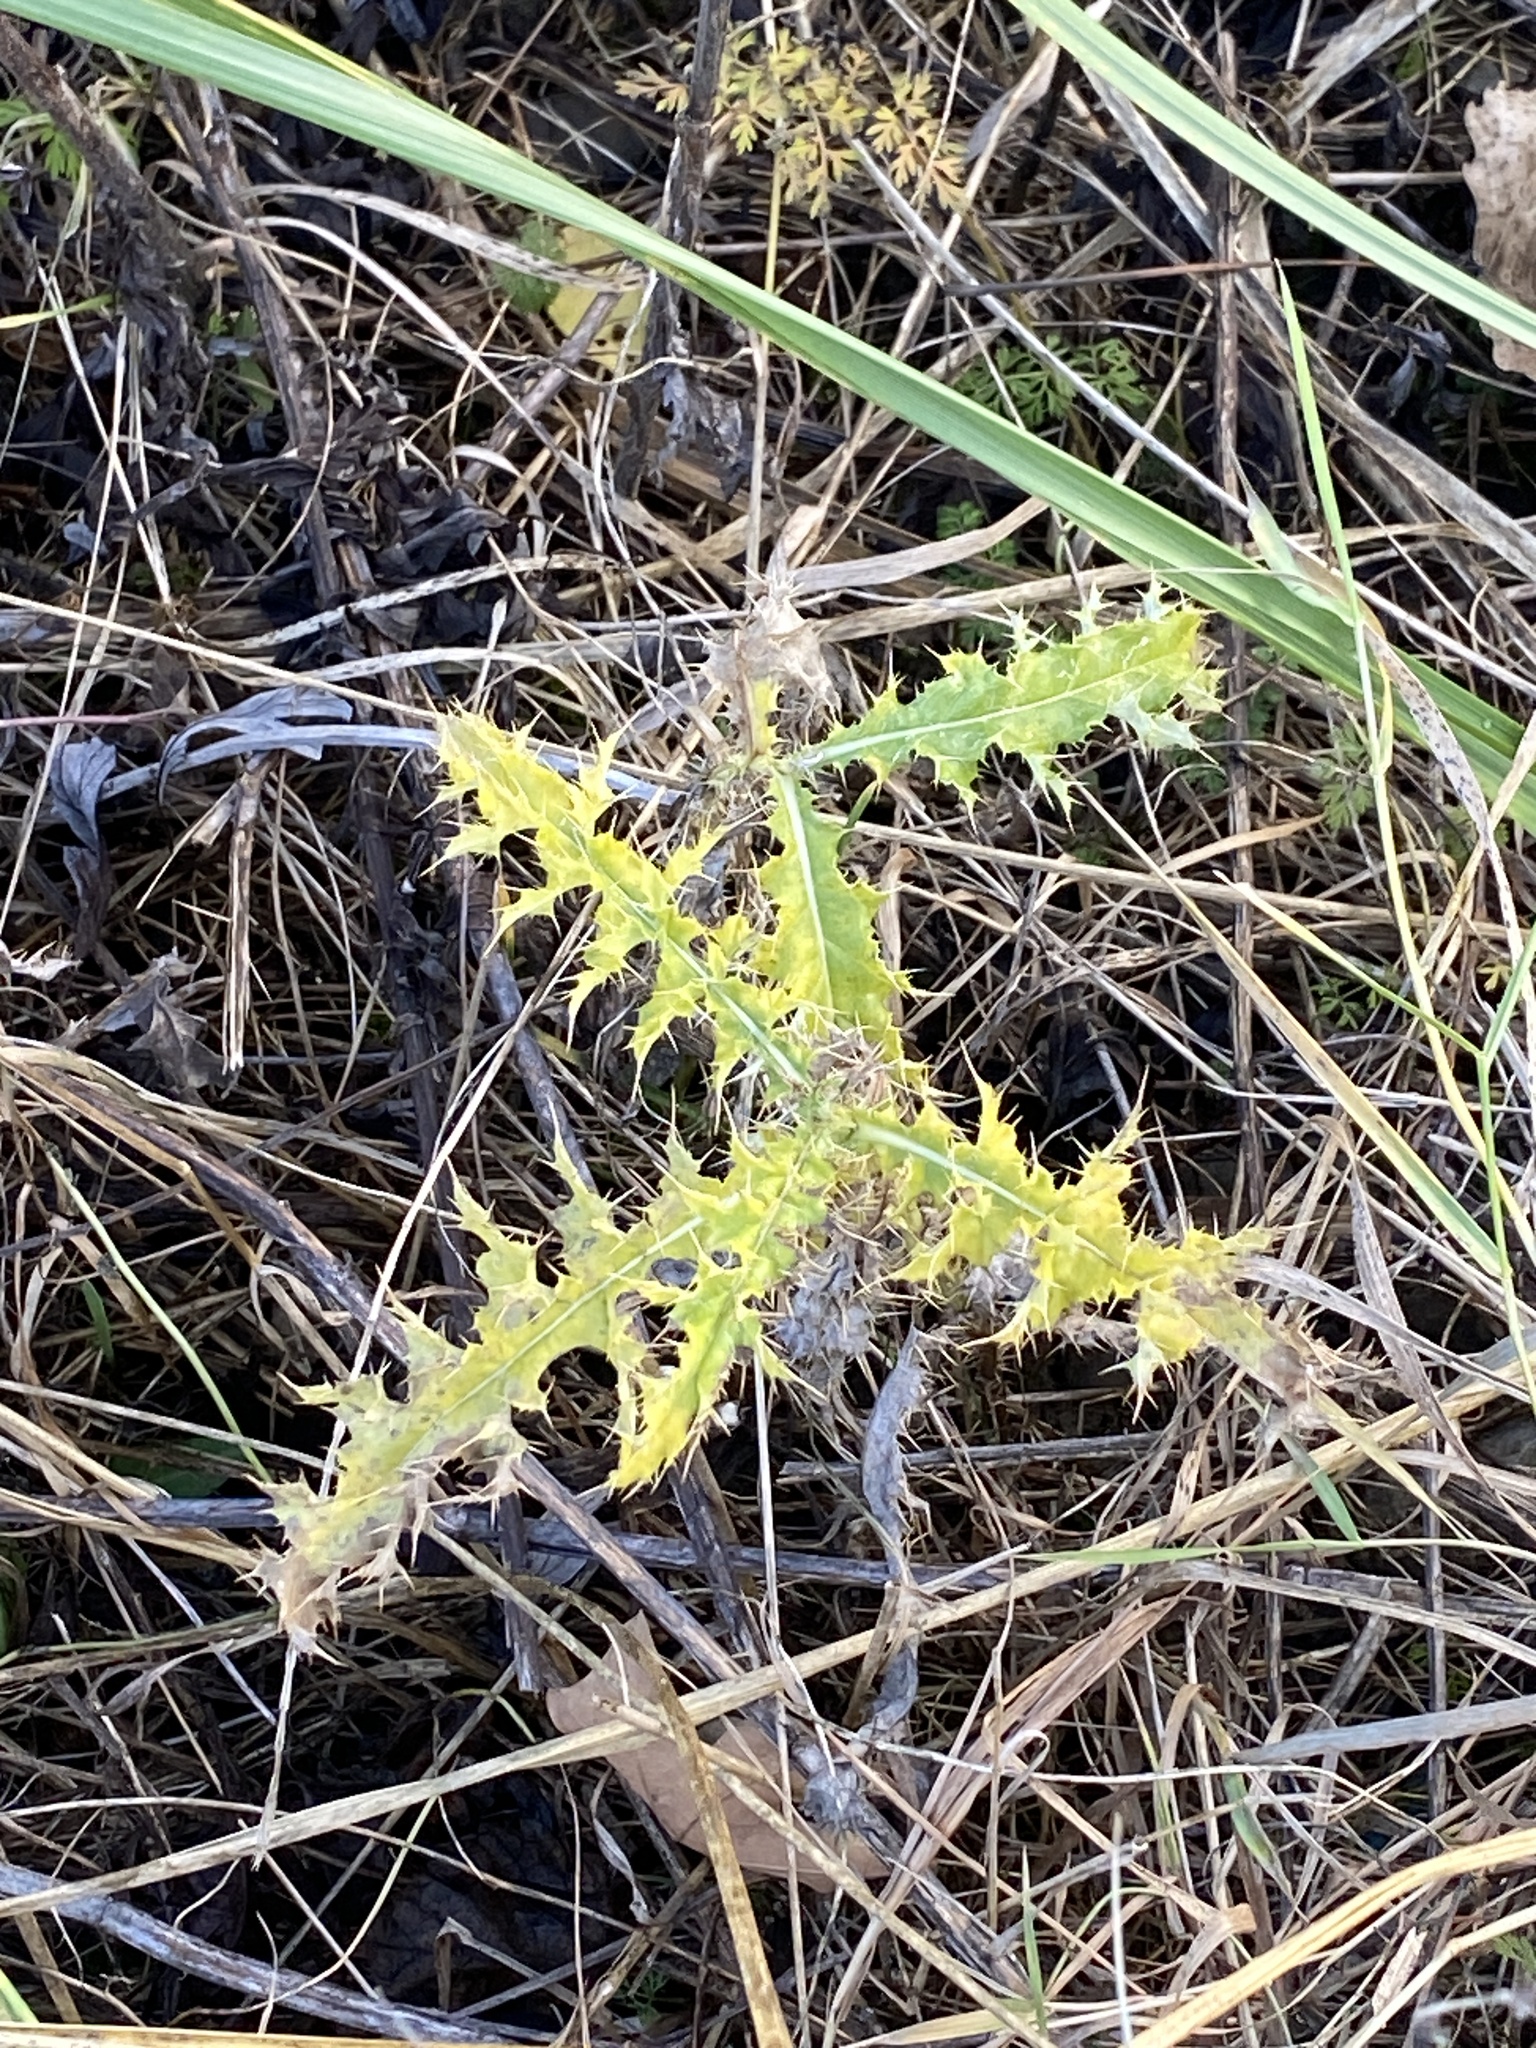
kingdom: Plantae
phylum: Tracheophyta
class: Magnoliopsida
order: Asterales
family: Asteraceae
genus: Cirsium
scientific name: Cirsium arvense
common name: Creeping thistle
